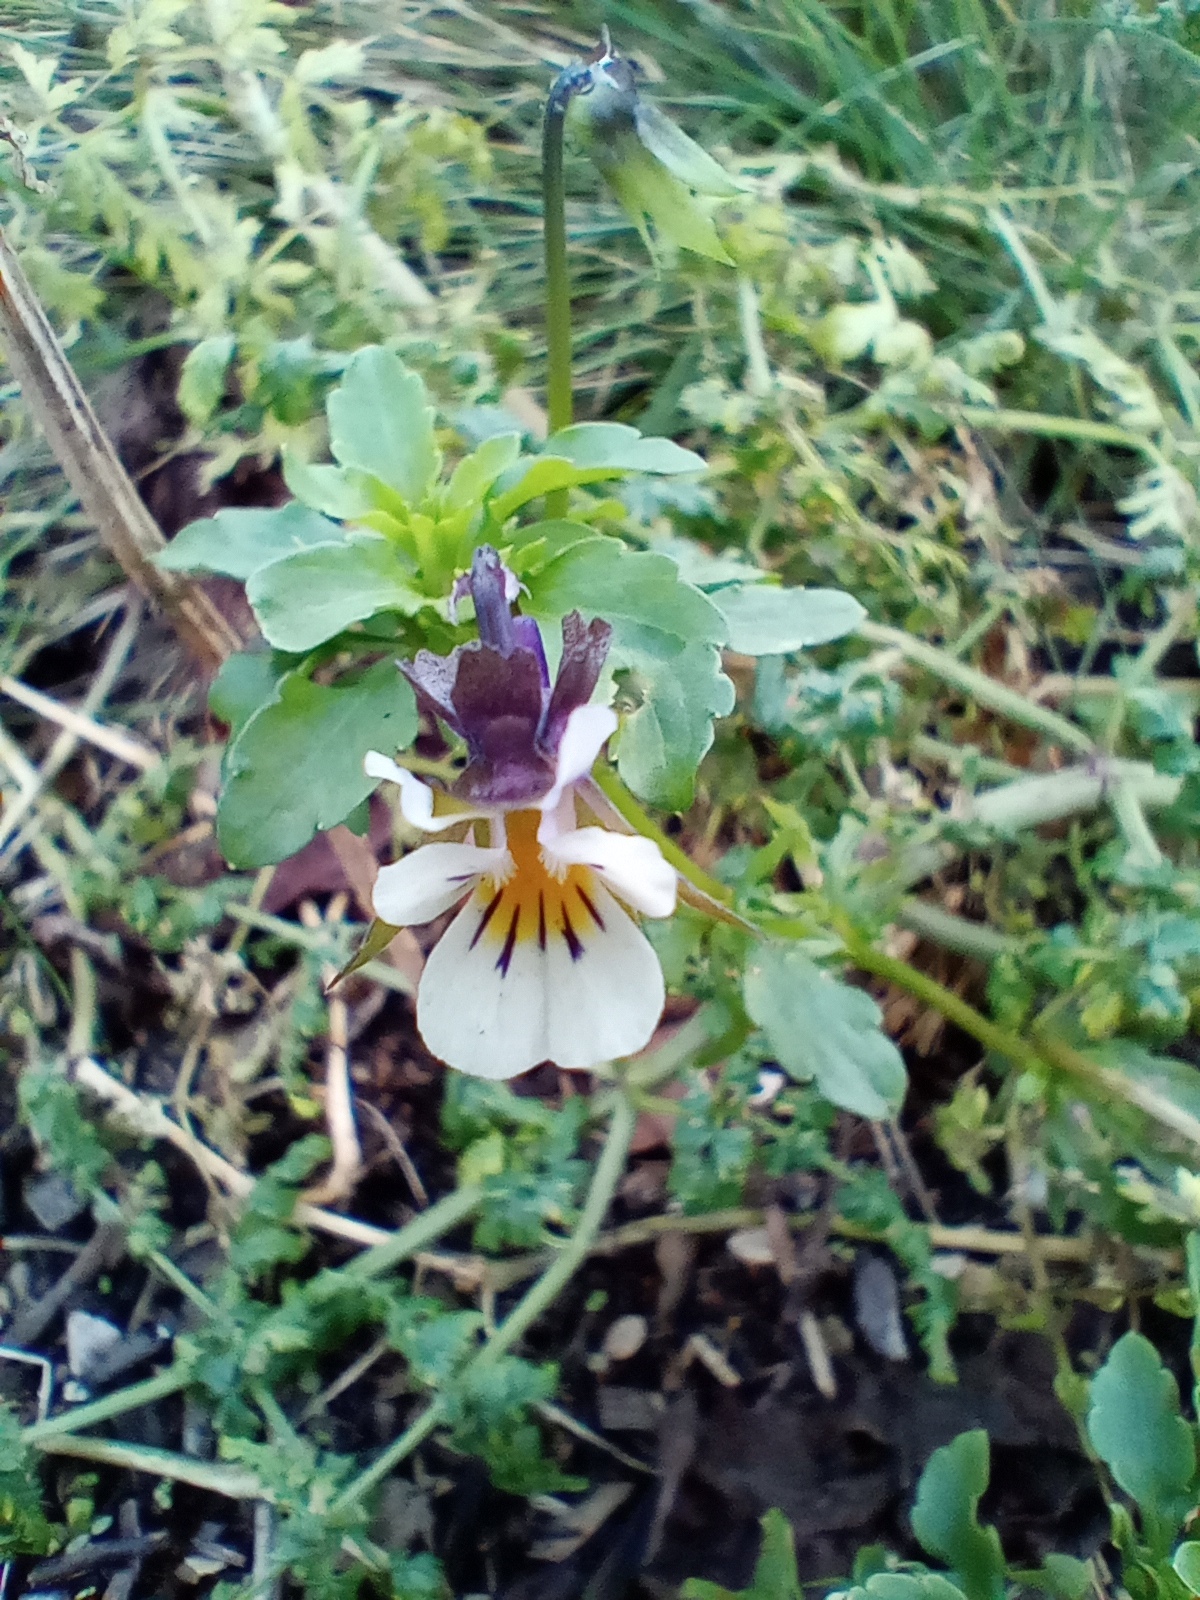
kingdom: Plantae
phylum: Tracheophyta
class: Magnoliopsida
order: Malpighiales
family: Violaceae
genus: Viola
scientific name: Viola arvensis
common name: Field pansy
